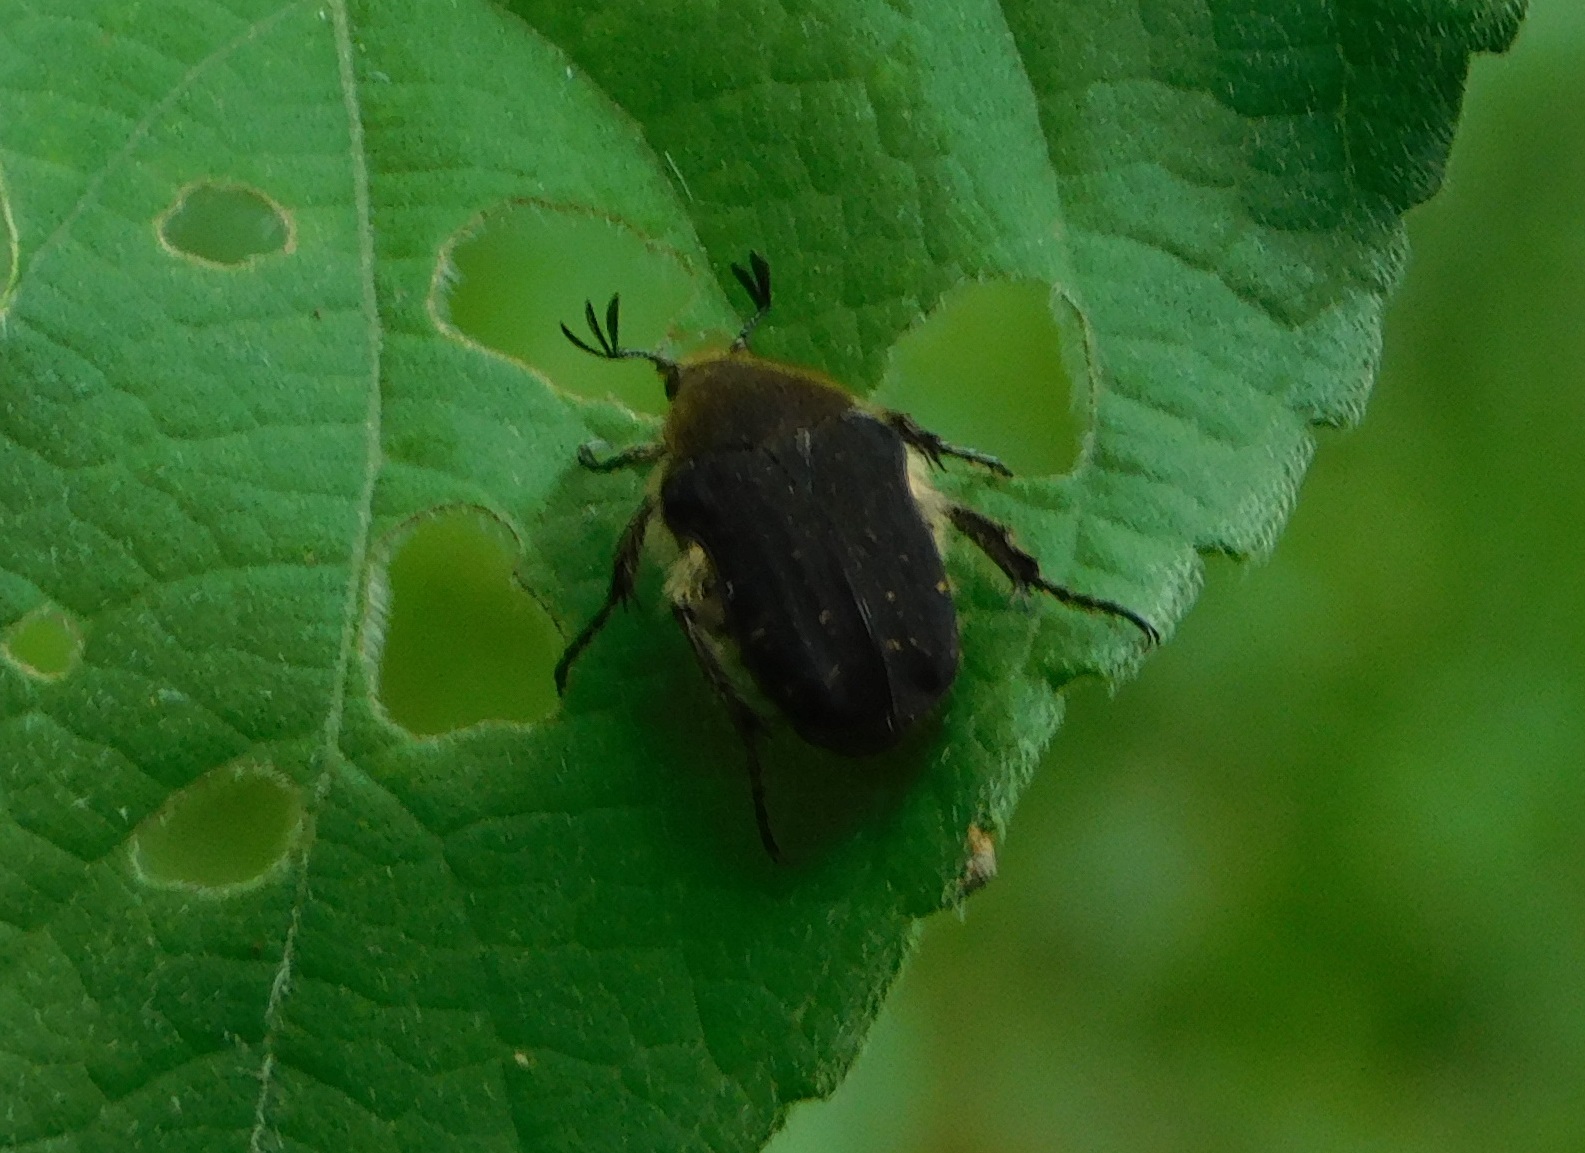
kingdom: Animalia
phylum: Arthropoda
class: Insecta
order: Coleoptera
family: Scarabaeidae
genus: Euphoria
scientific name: Euphoria lacandona
